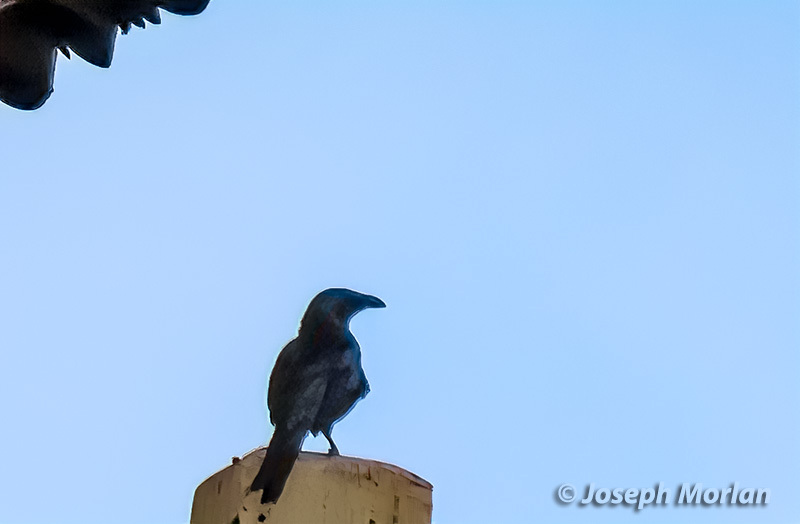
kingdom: Animalia
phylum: Chordata
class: Aves
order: Passeriformes
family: Sturnidae
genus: Aplonis
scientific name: Aplonis mysolensis
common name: Moluccan starling
